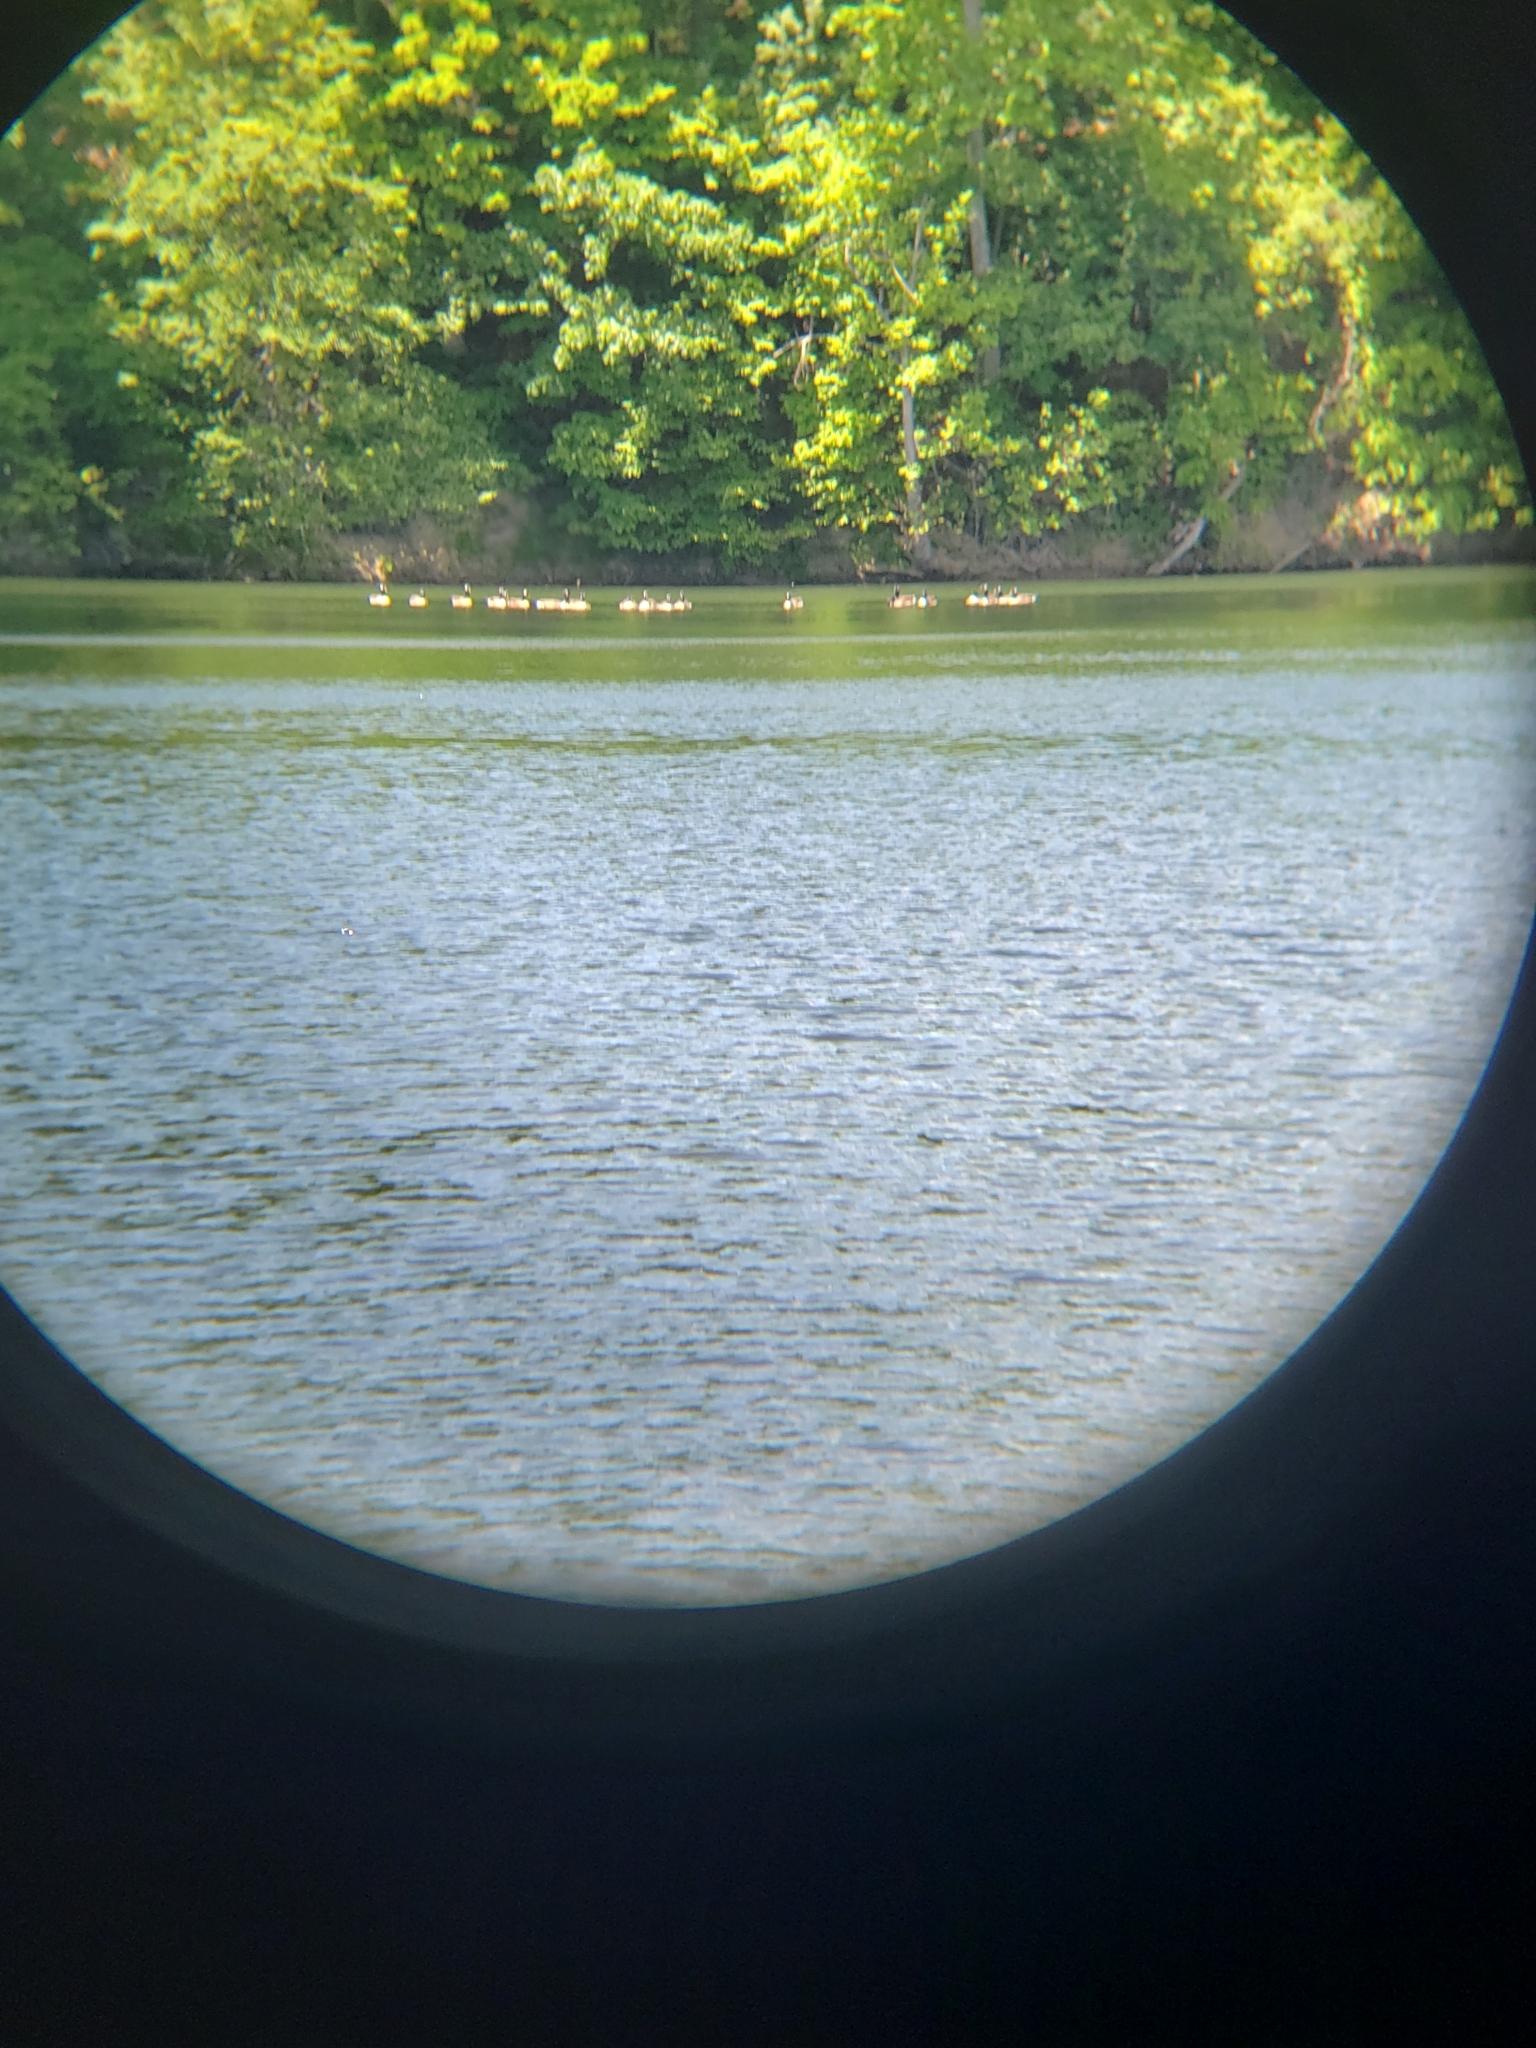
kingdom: Animalia
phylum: Chordata
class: Aves
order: Anseriformes
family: Anatidae
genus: Branta
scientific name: Branta canadensis
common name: Canada goose
